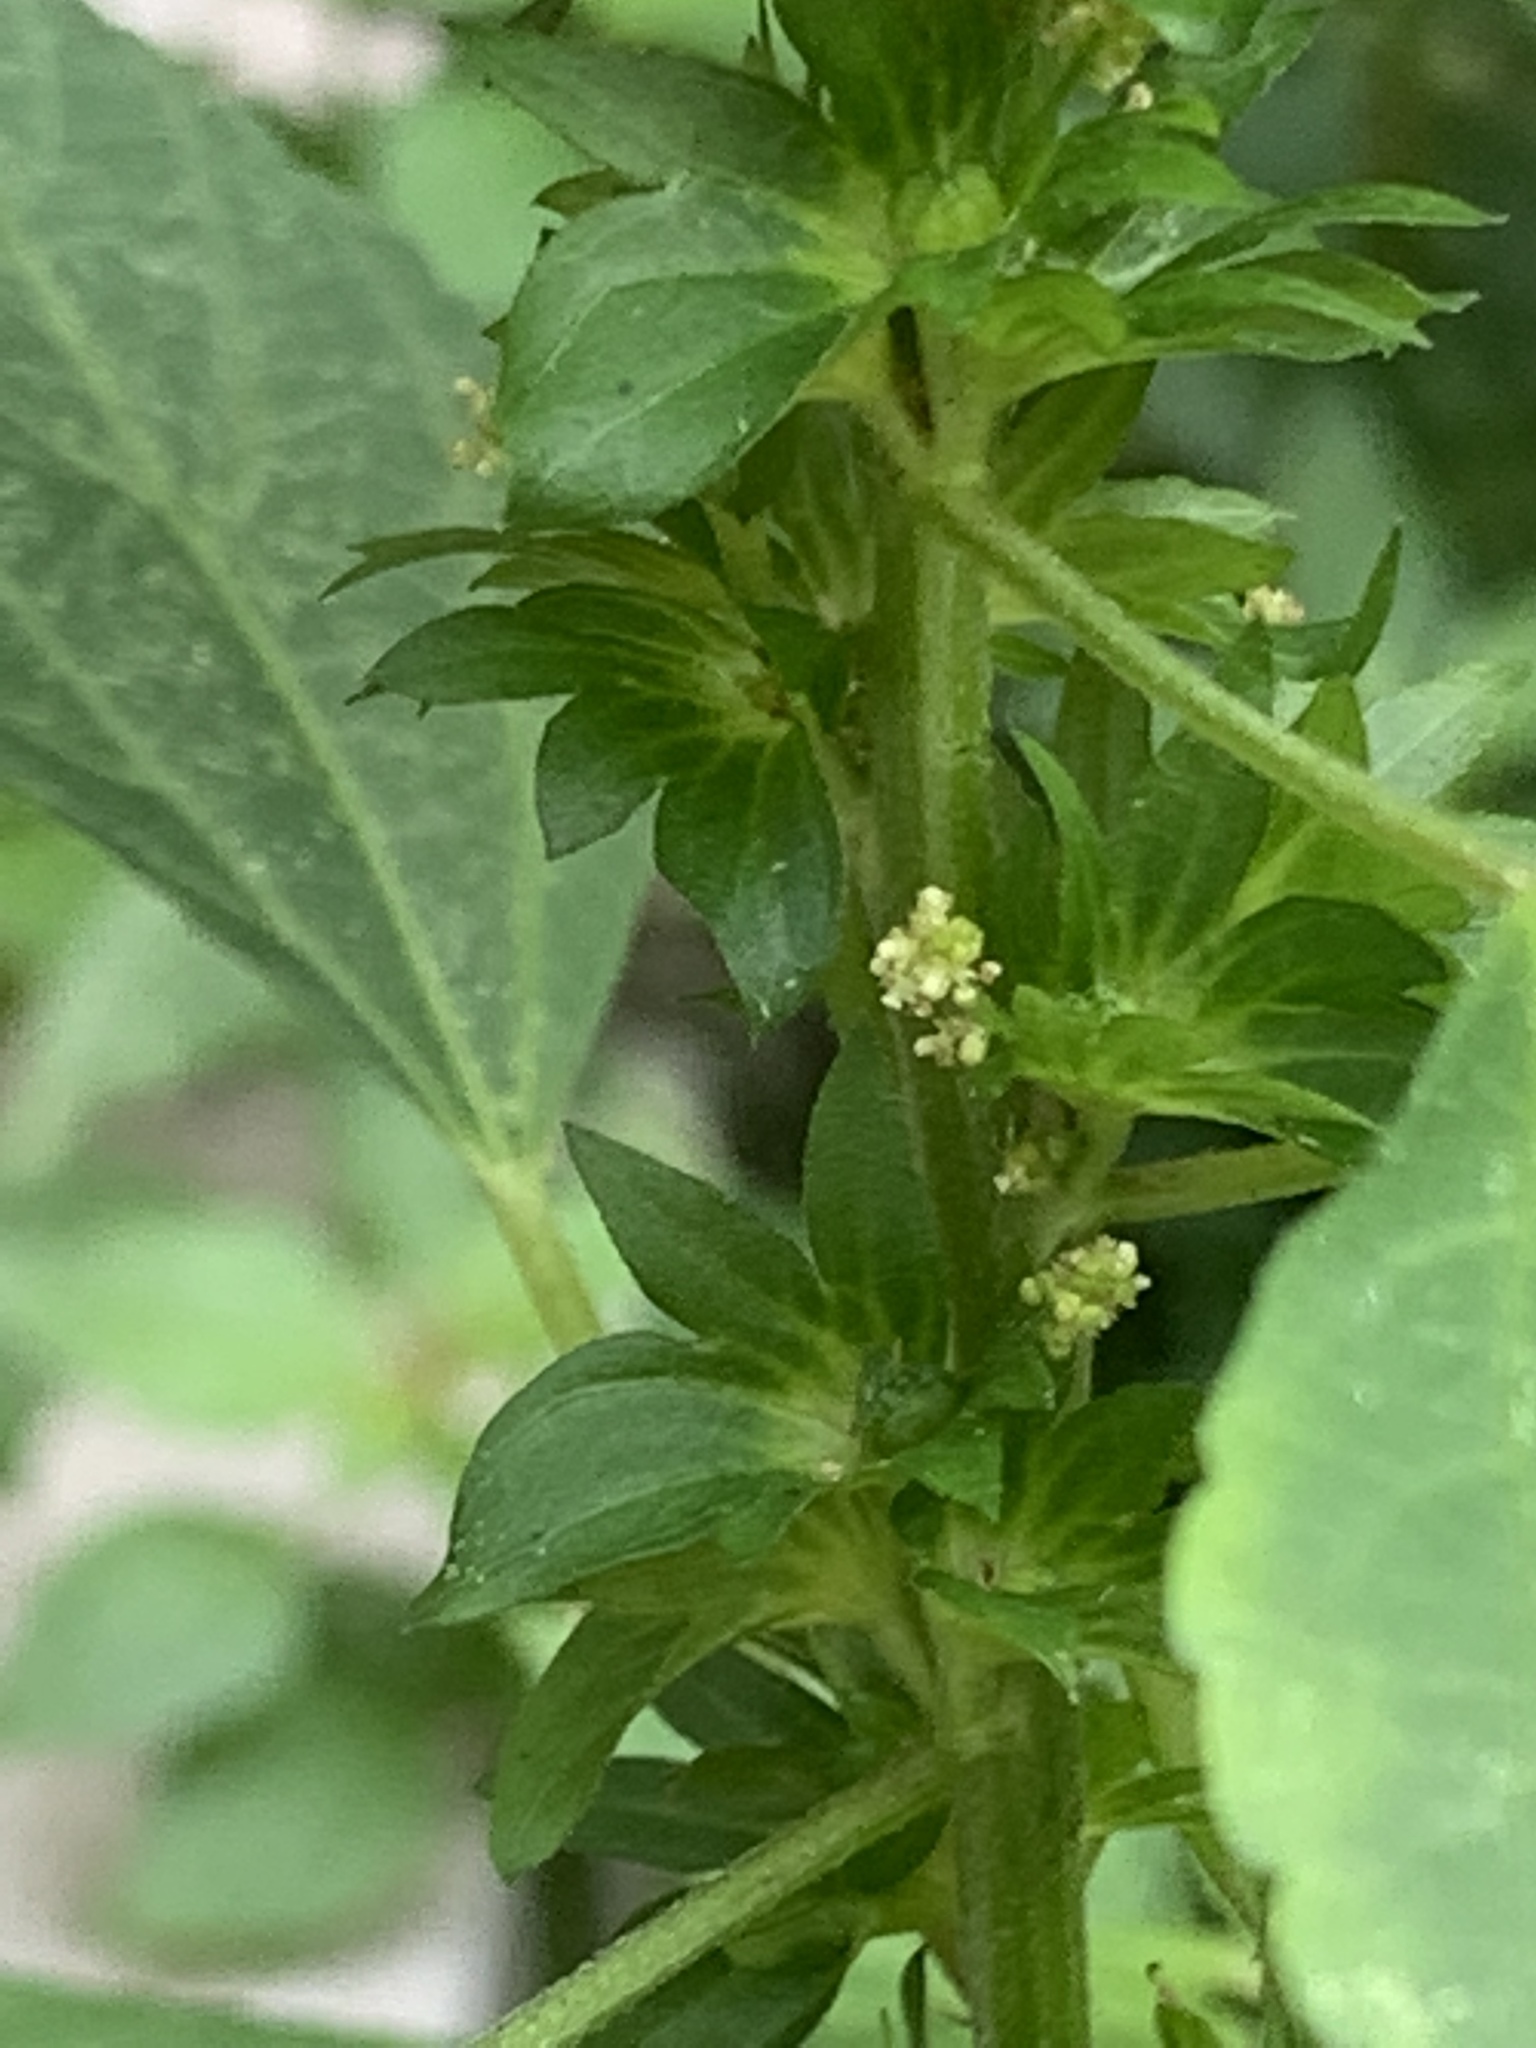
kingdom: Plantae
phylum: Tracheophyta
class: Magnoliopsida
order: Malpighiales
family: Euphorbiaceae
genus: Acalypha
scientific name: Acalypha rhomboidea
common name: Rhombic copperleaf
